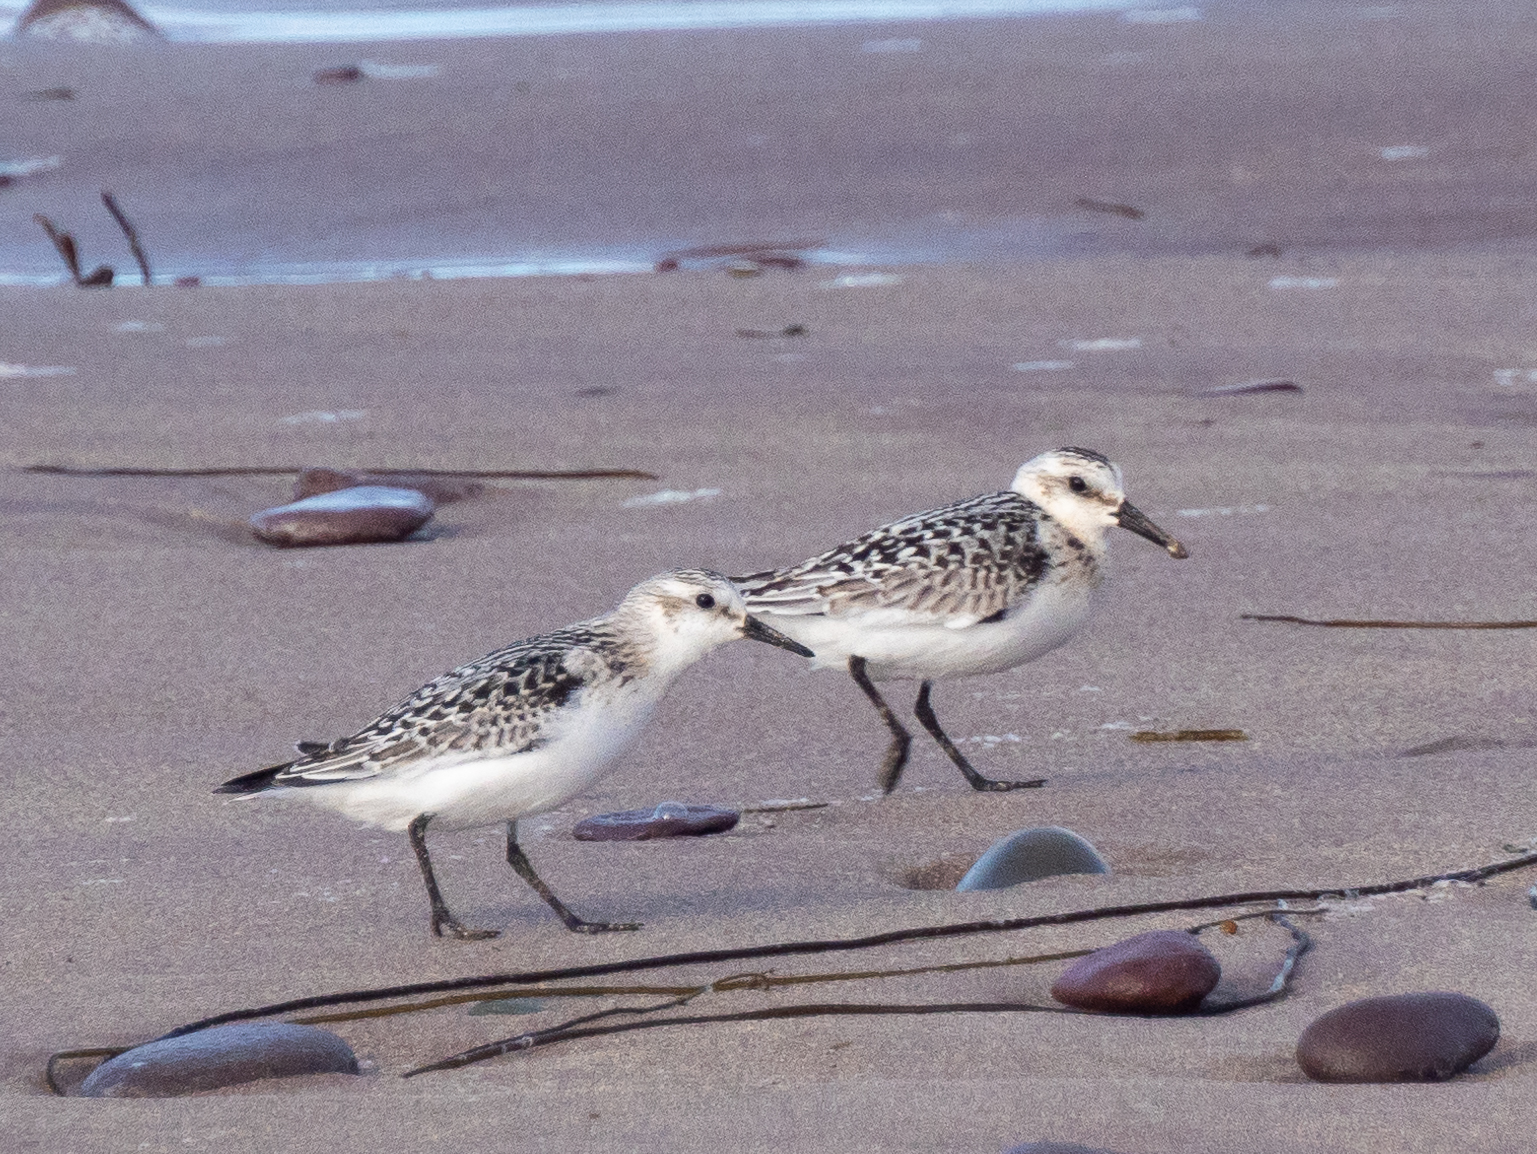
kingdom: Animalia
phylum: Chordata
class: Aves
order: Charadriiformes
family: Scolopacidae
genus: Calidris
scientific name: Calidris alba
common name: Sanderling
